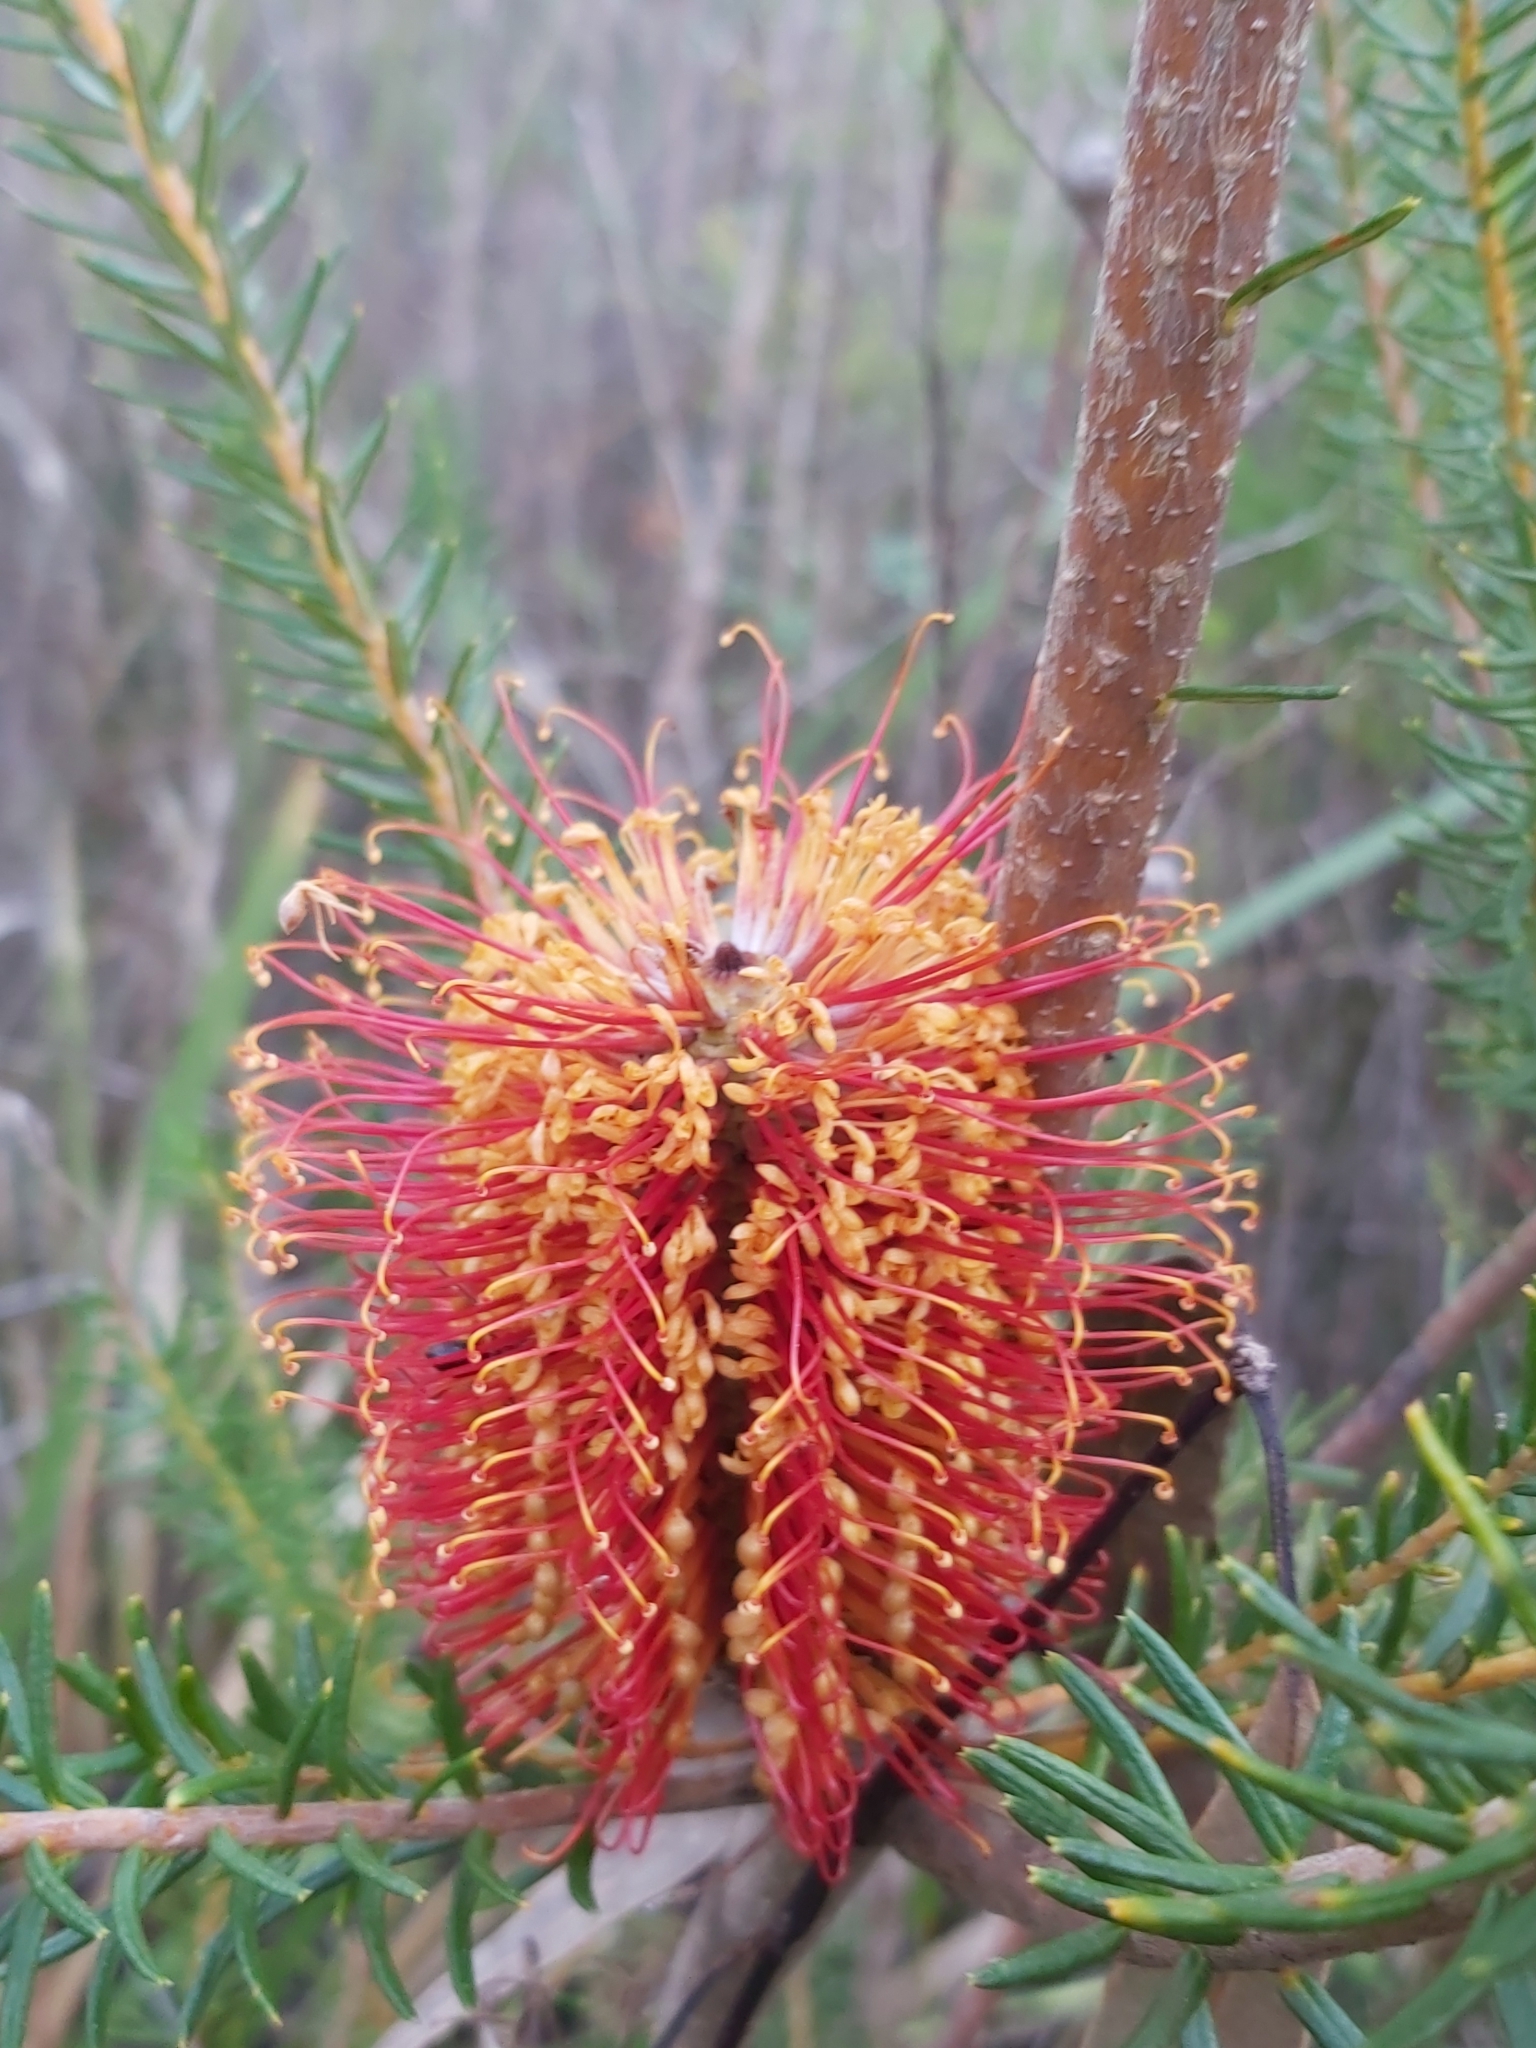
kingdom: Plantae
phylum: Tracheophyta
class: Magnoliopsida
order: Proteales
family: Proteaceae
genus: Banksia
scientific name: Banksia ericifolia
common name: Heath-leaf banksia
